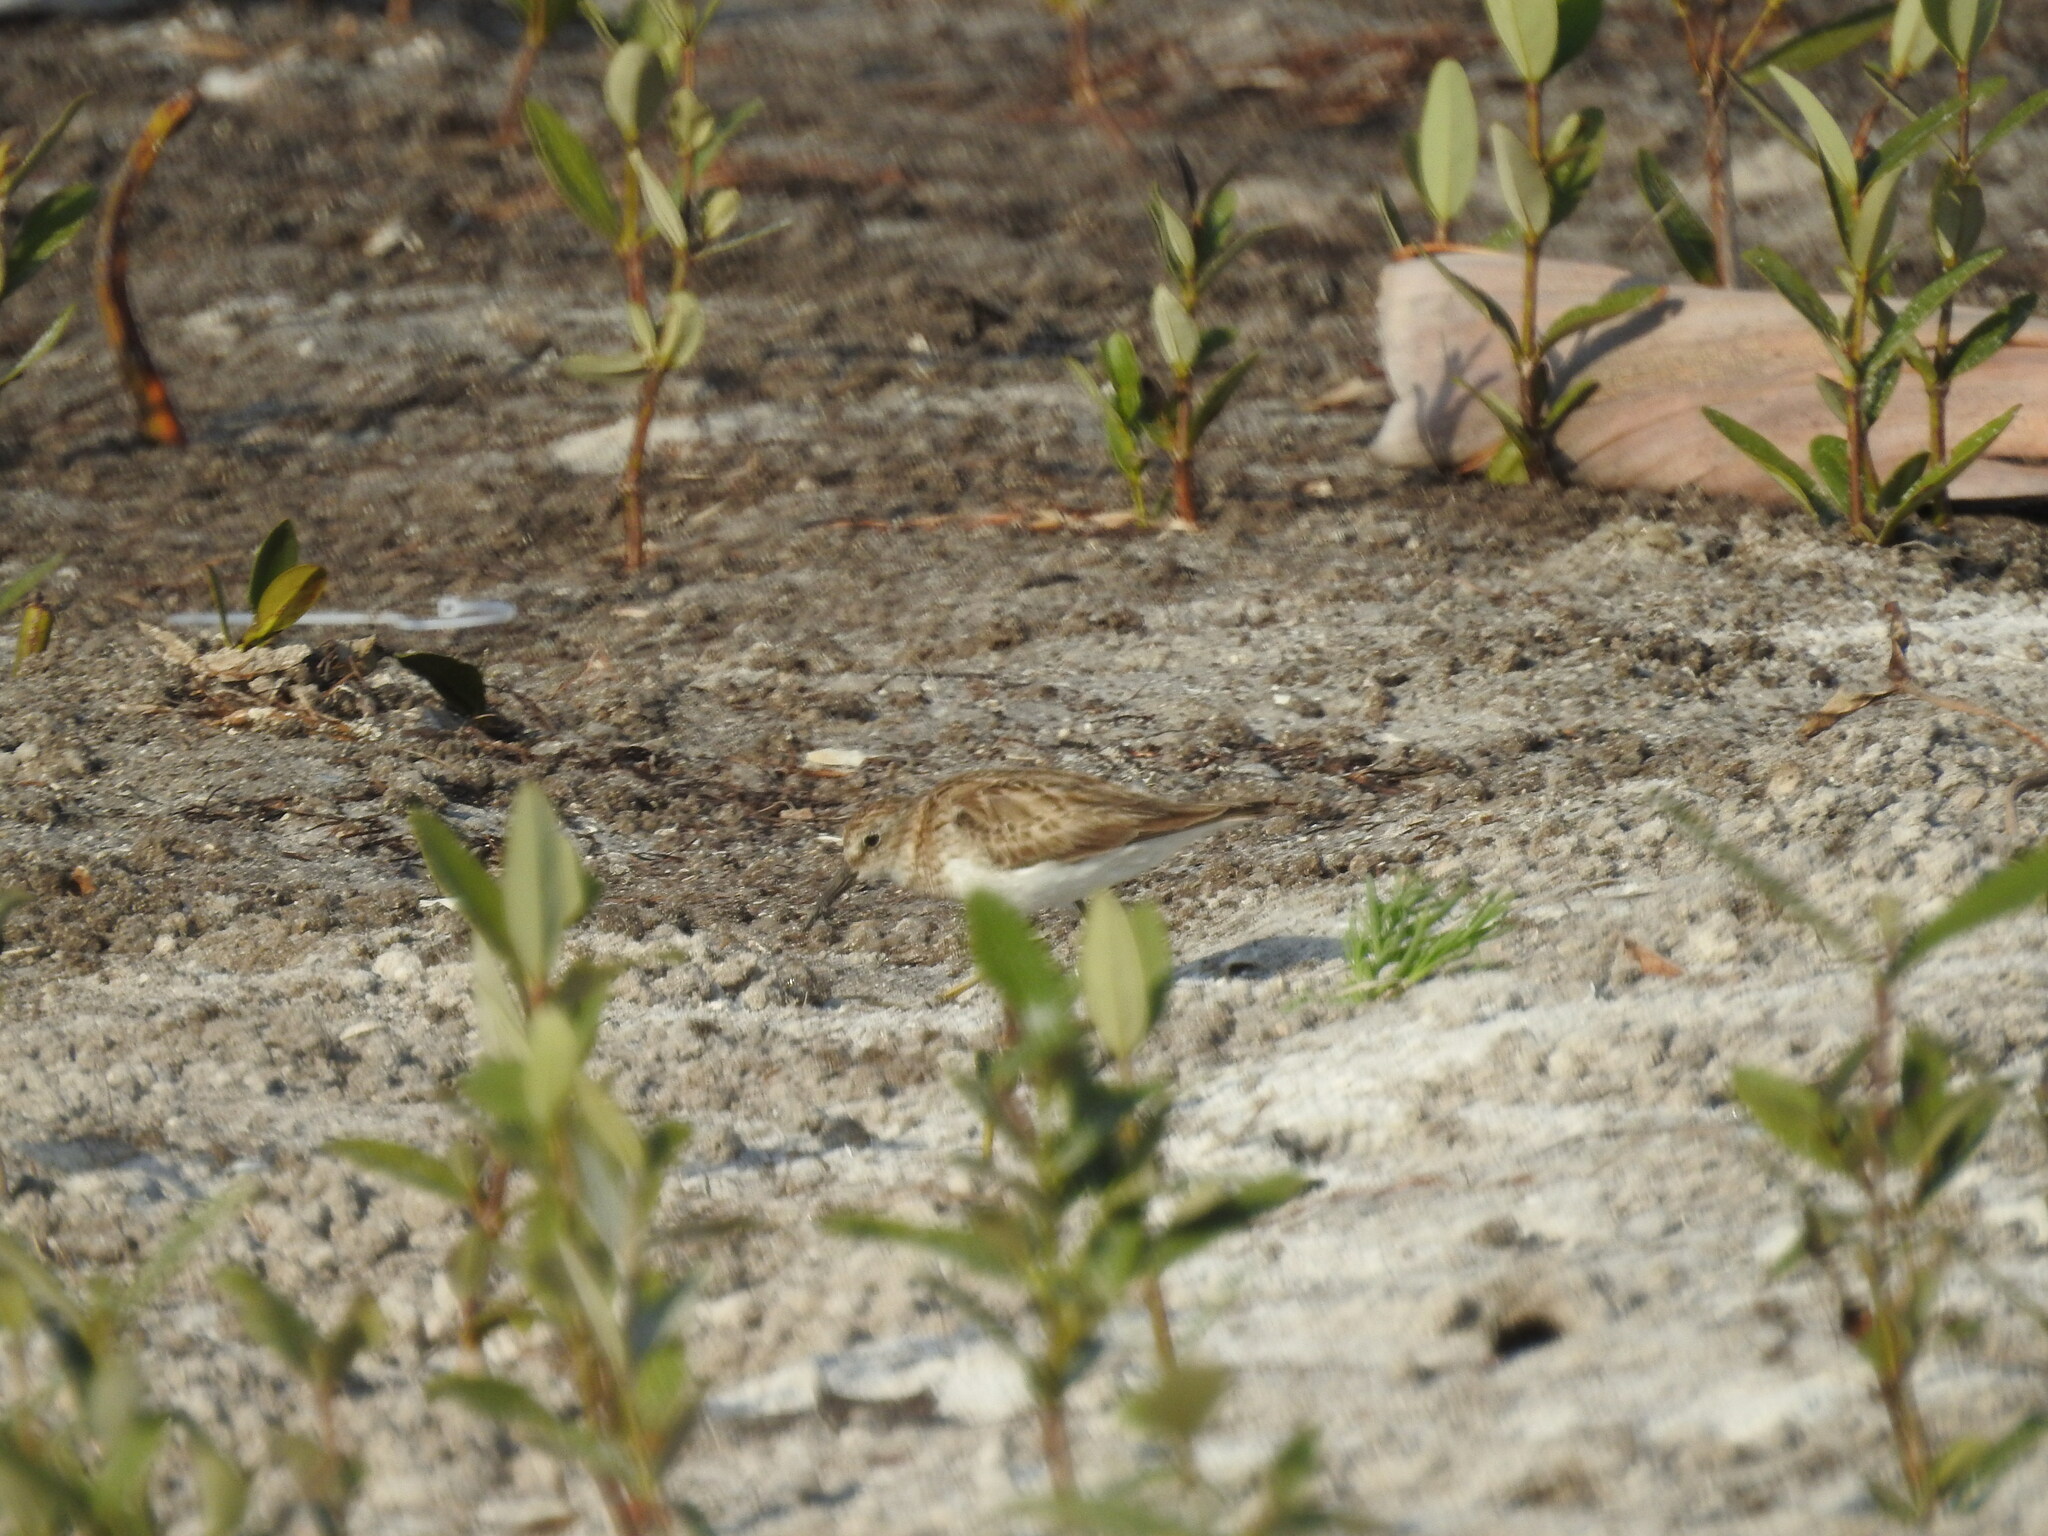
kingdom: Animalia
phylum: Chordata
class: Aves
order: Charadriiformes
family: Scolopacidae
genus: Calidris
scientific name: Calidris minutilla
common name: Least sandpiper
